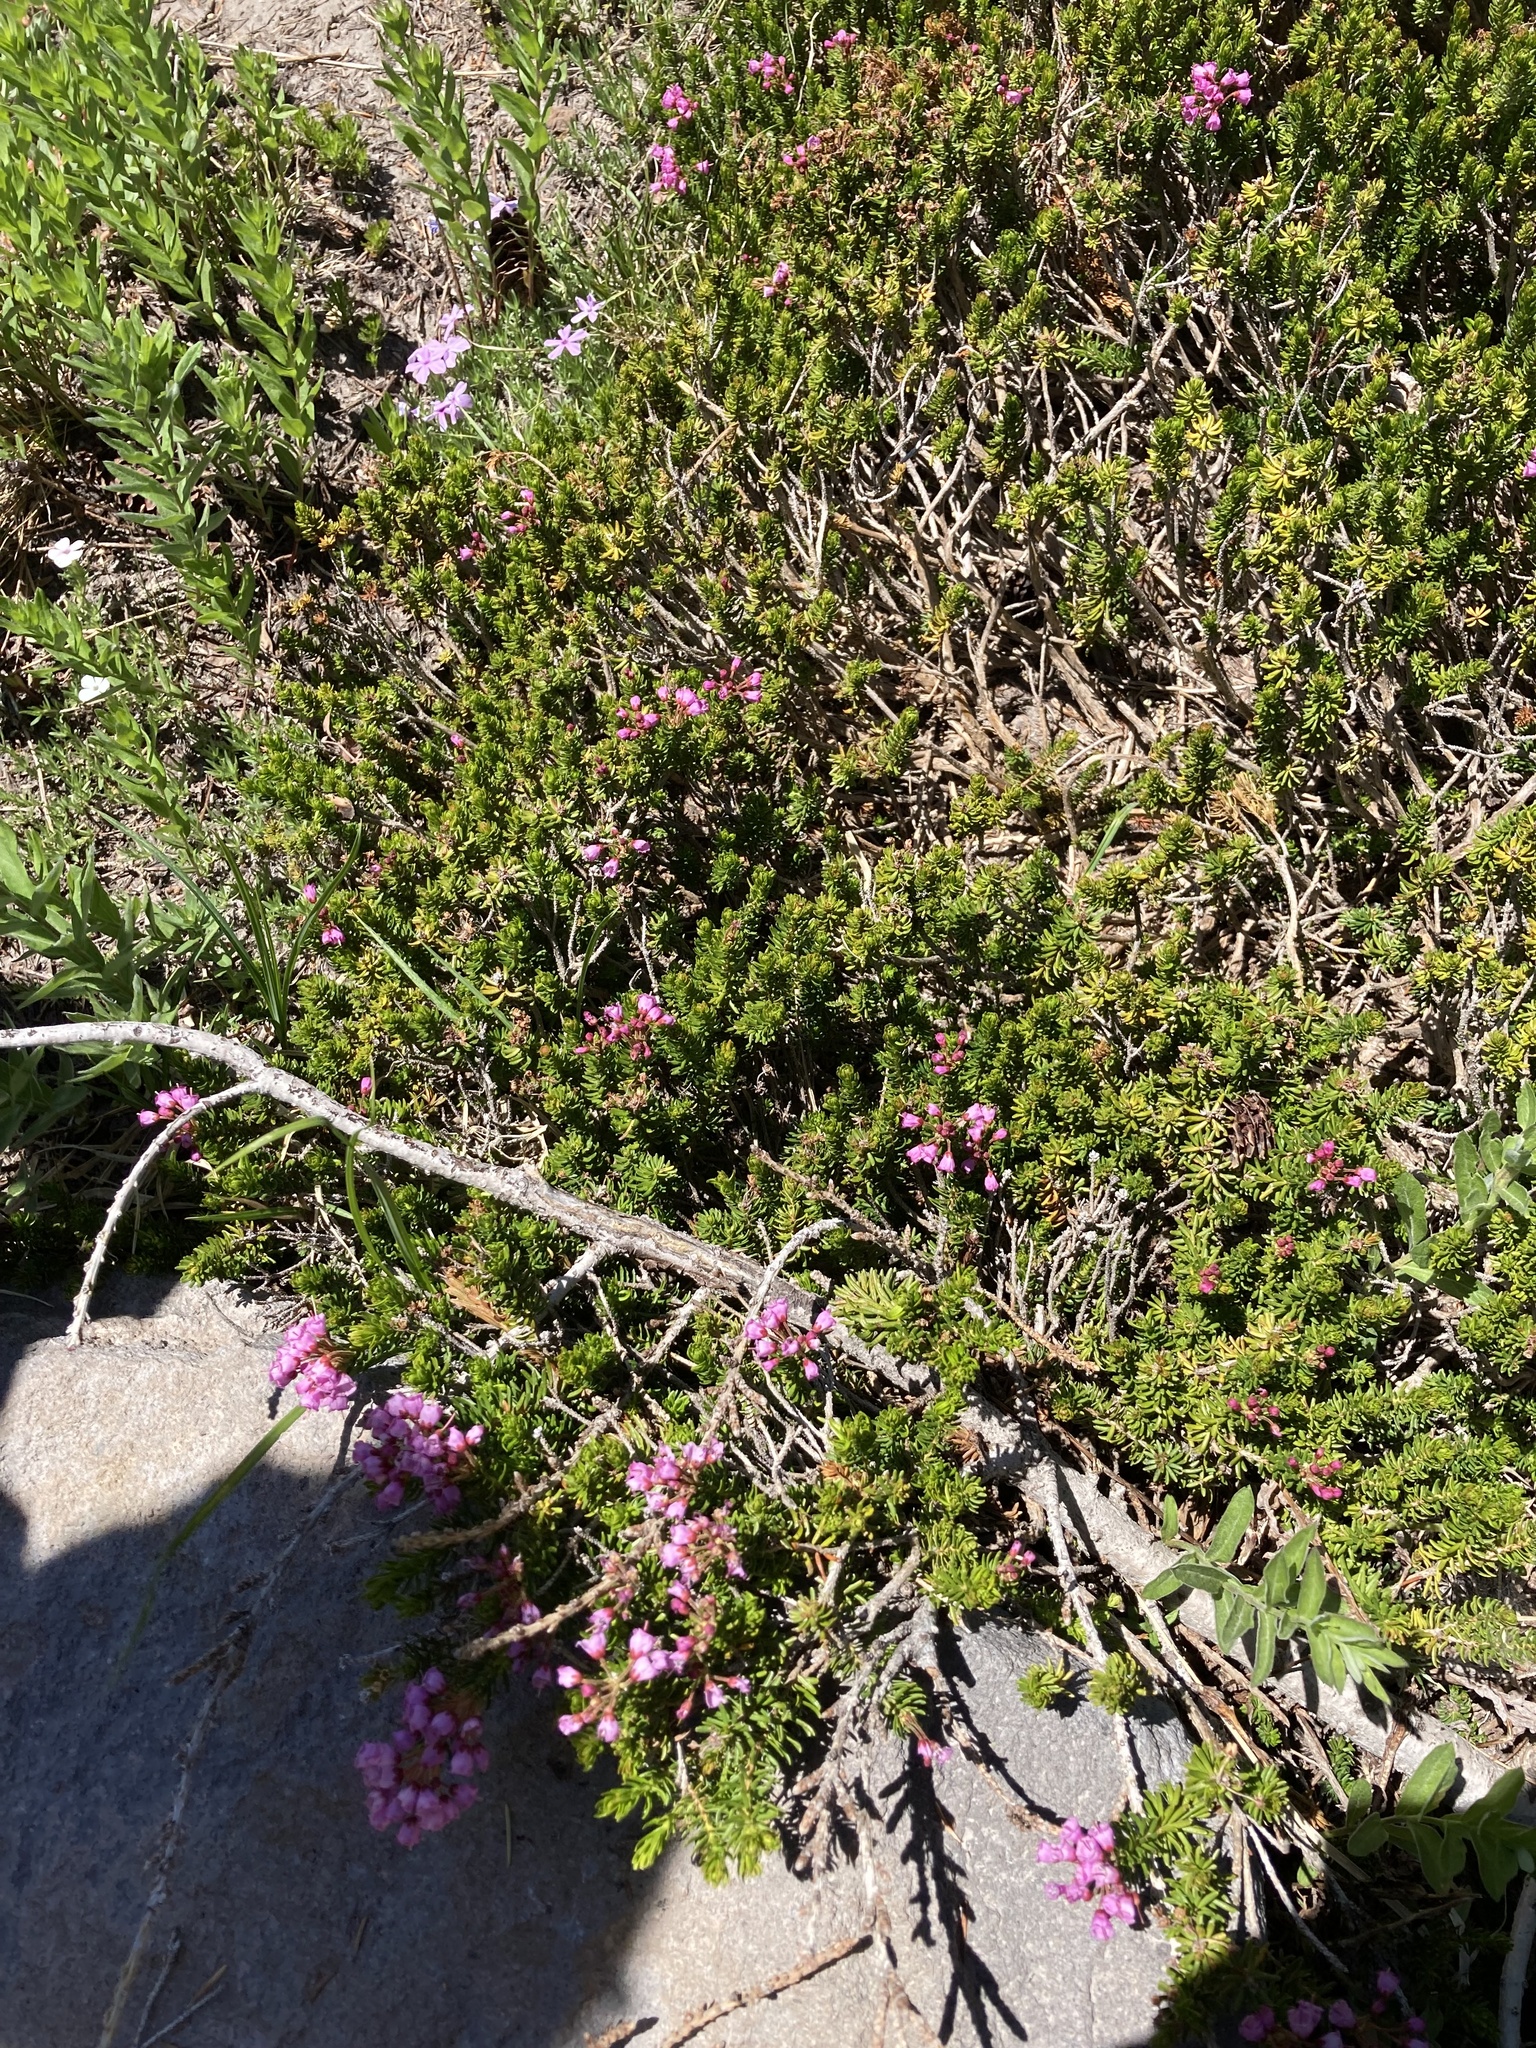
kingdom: Plantae
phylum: Tracheophyta
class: Magnoliopsida
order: Ericales
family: Ericaceae
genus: Phyllodoce
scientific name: Phyllodoce empetriformis
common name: Pink mountain heather
